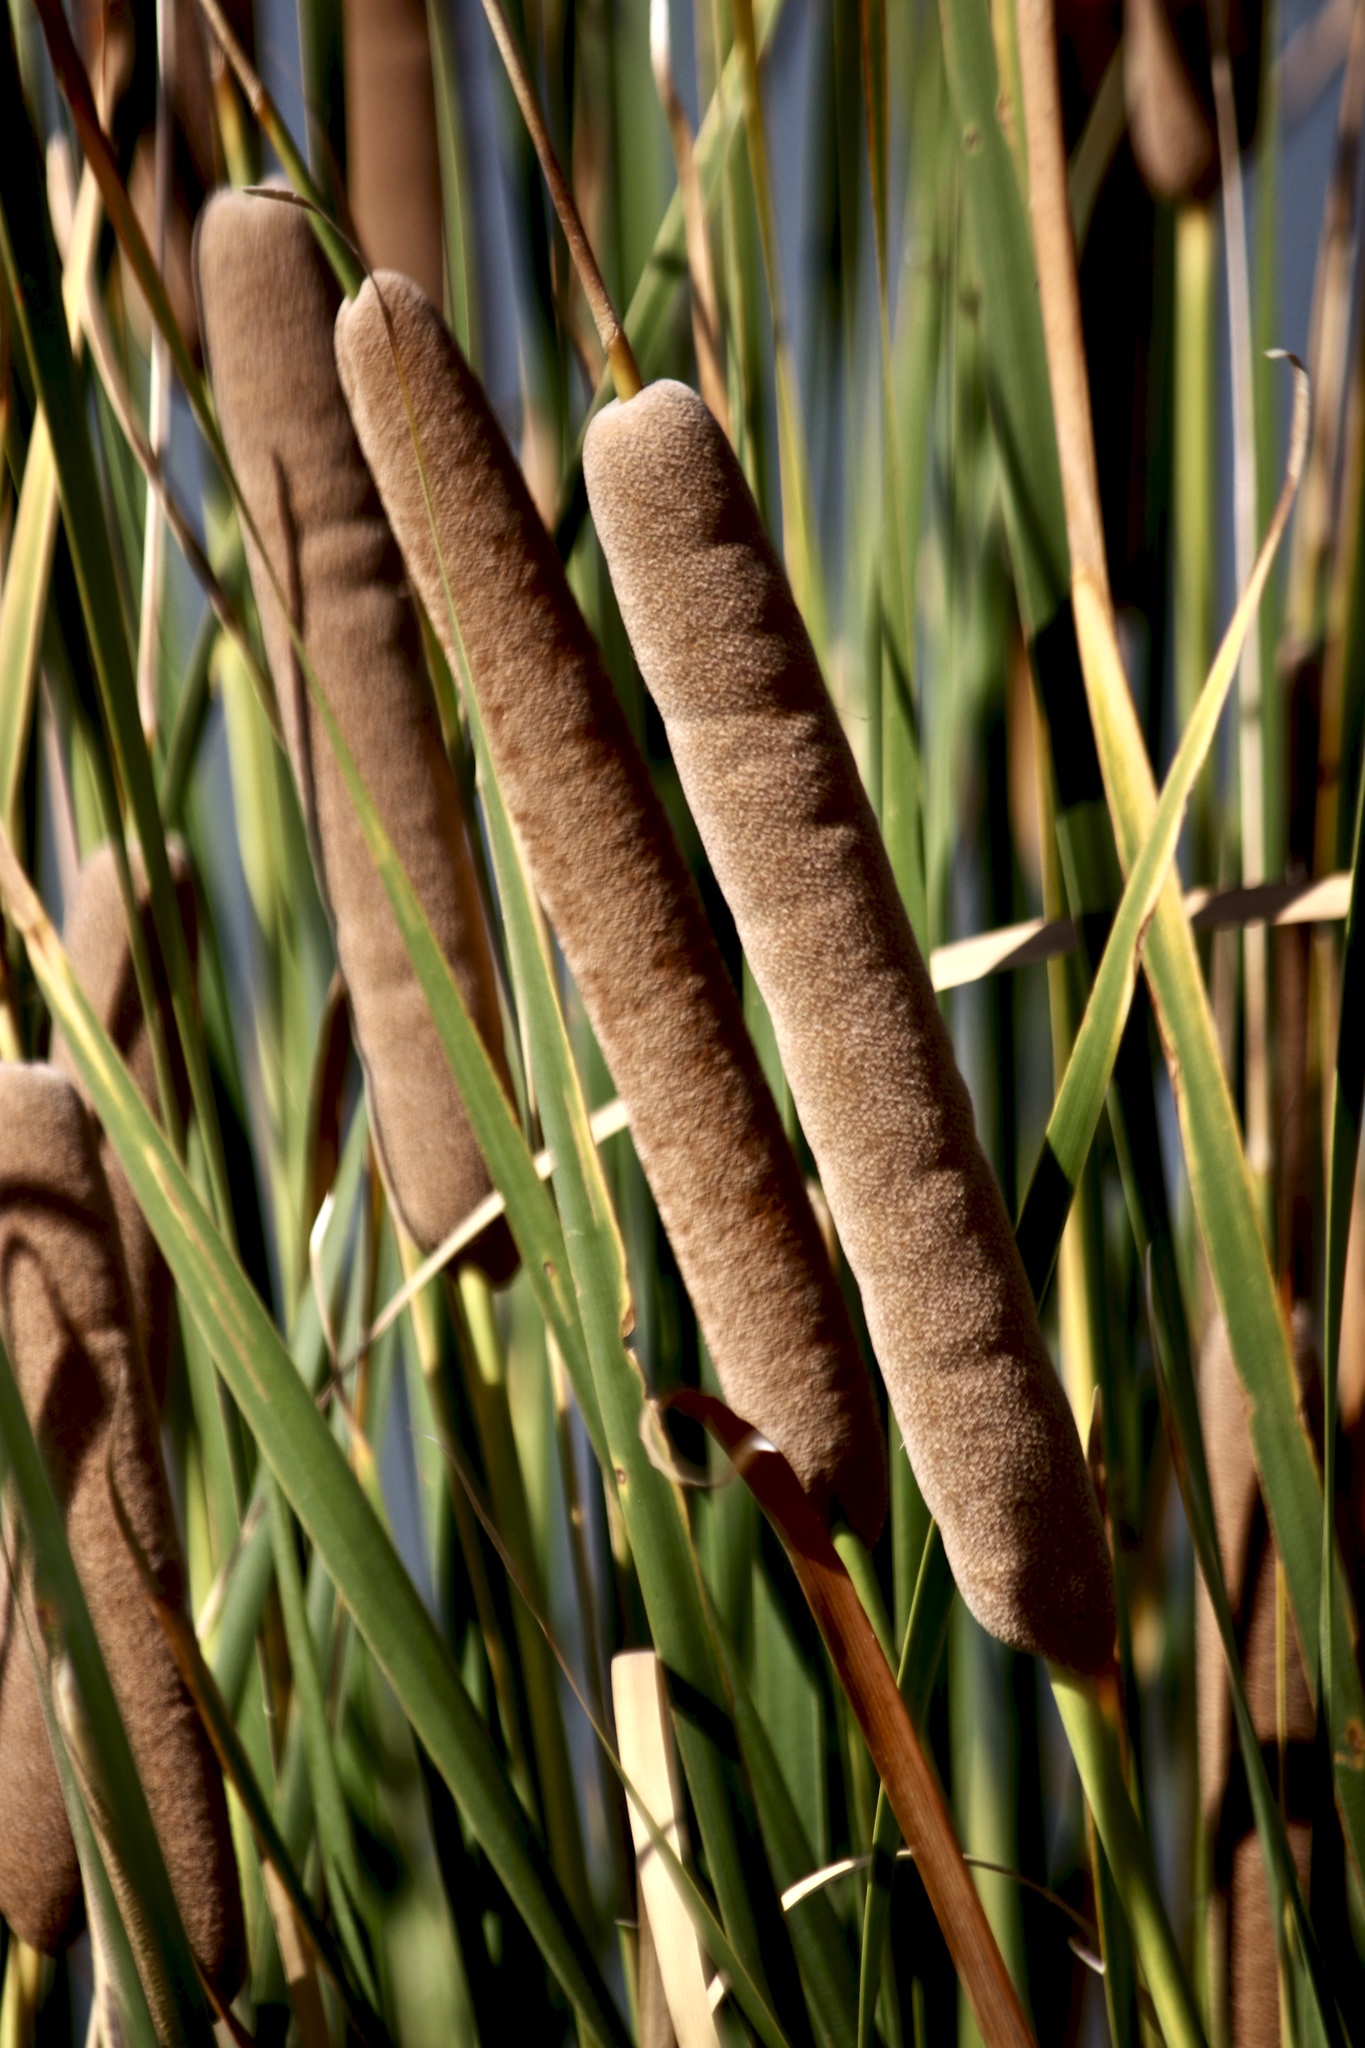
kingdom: Plantae
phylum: Tracheophyta
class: Liliopsida
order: Poales
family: Typhaceae
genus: Typha
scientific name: Typha angustifolia
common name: Lesser bulrush
